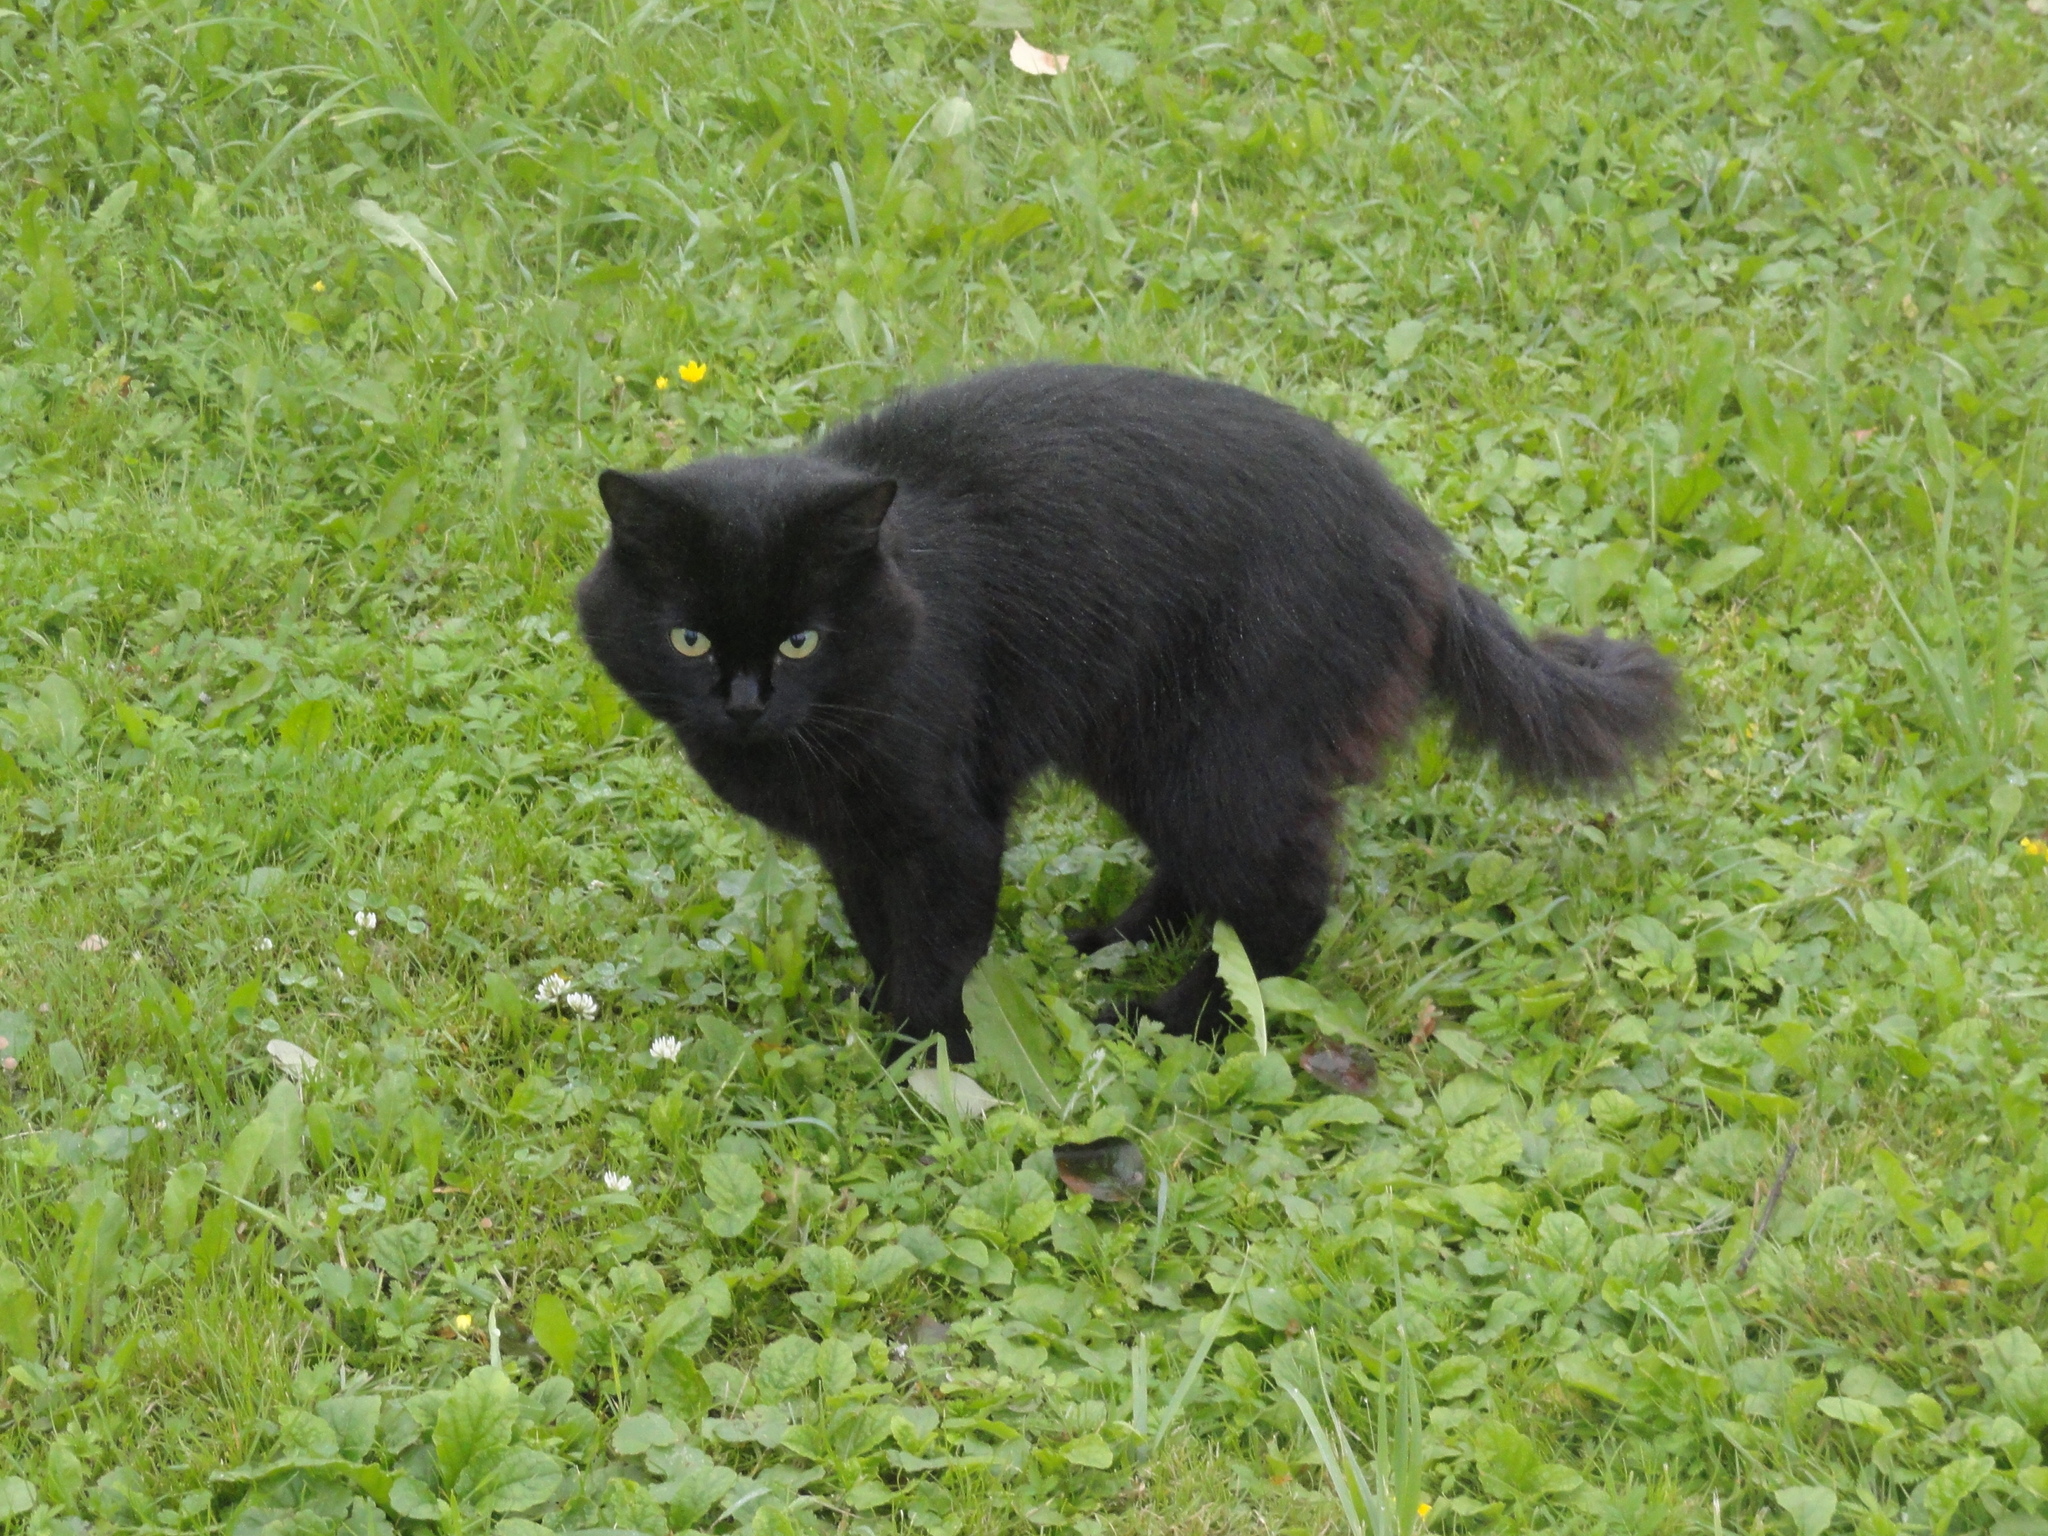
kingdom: Animalia
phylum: Chordata
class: Mammalia
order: Carnivora
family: Felidae
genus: Felis
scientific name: Felis catus
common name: Domestic cat
